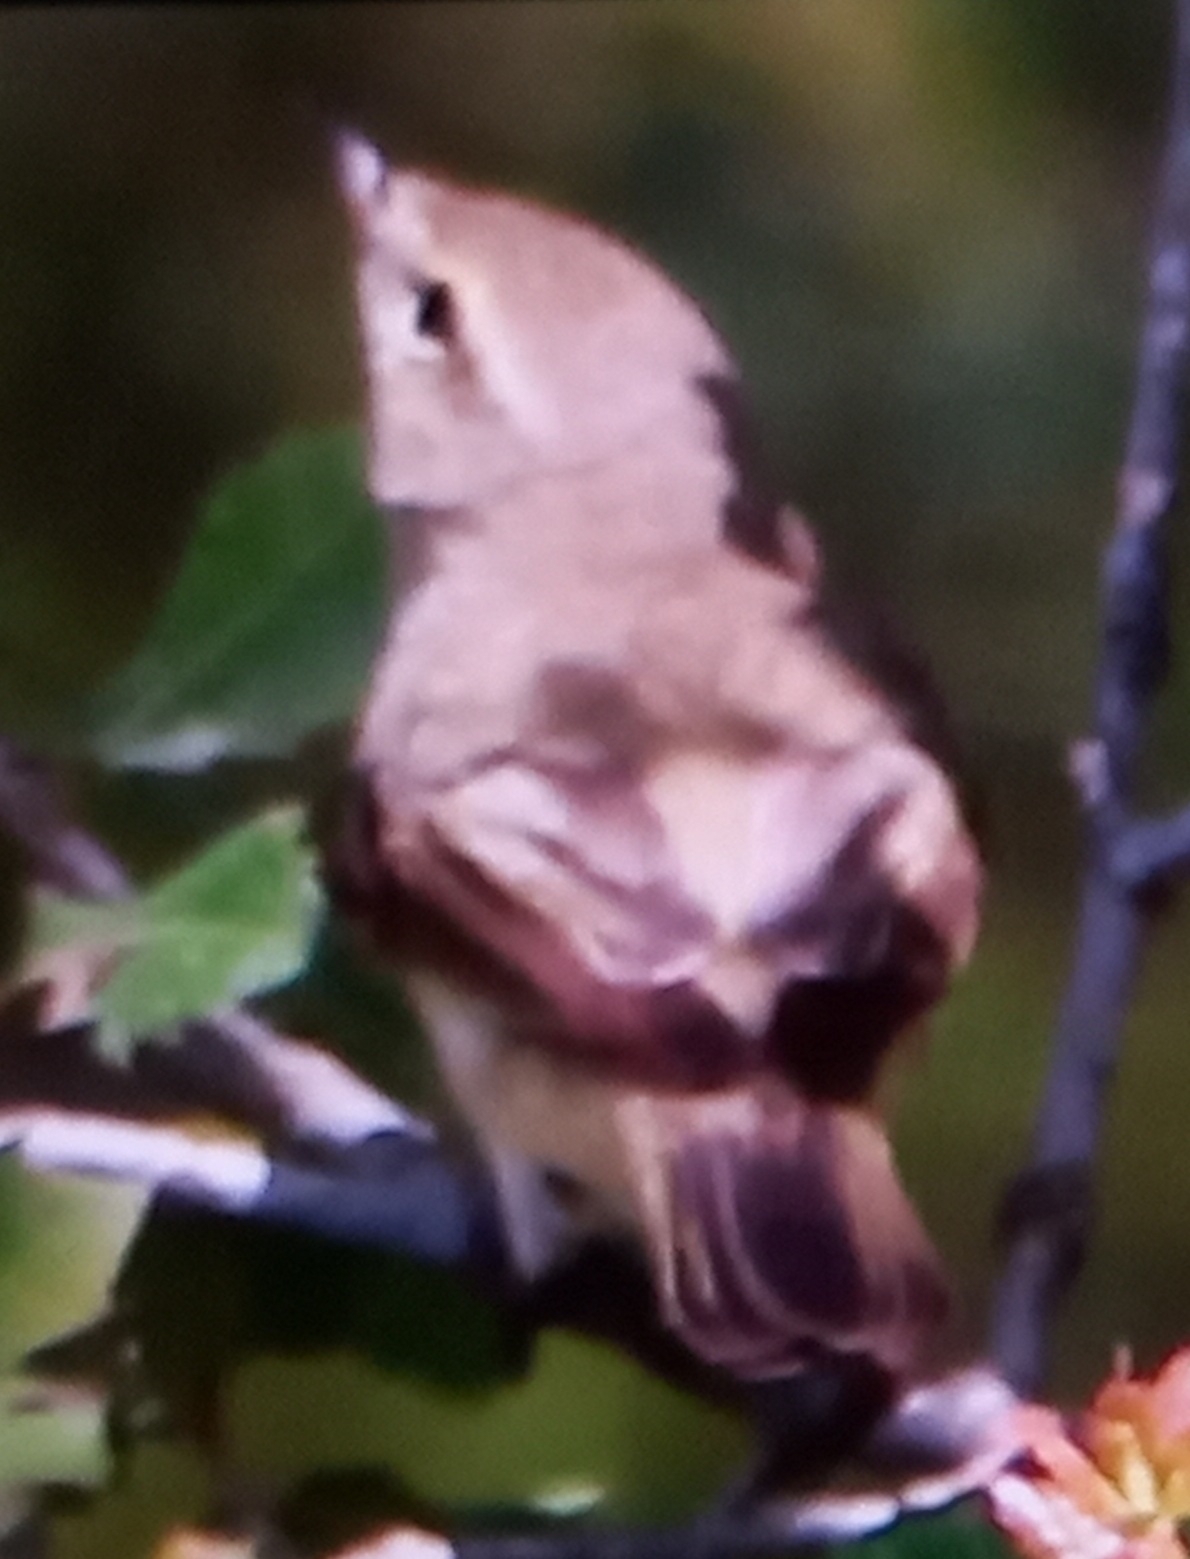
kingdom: Animalia
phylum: Chordata
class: Aves
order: Passeriformes
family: Phylloscopidae
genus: Phylloscopus
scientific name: Phylloscopus trochilus
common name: Willow warbler
